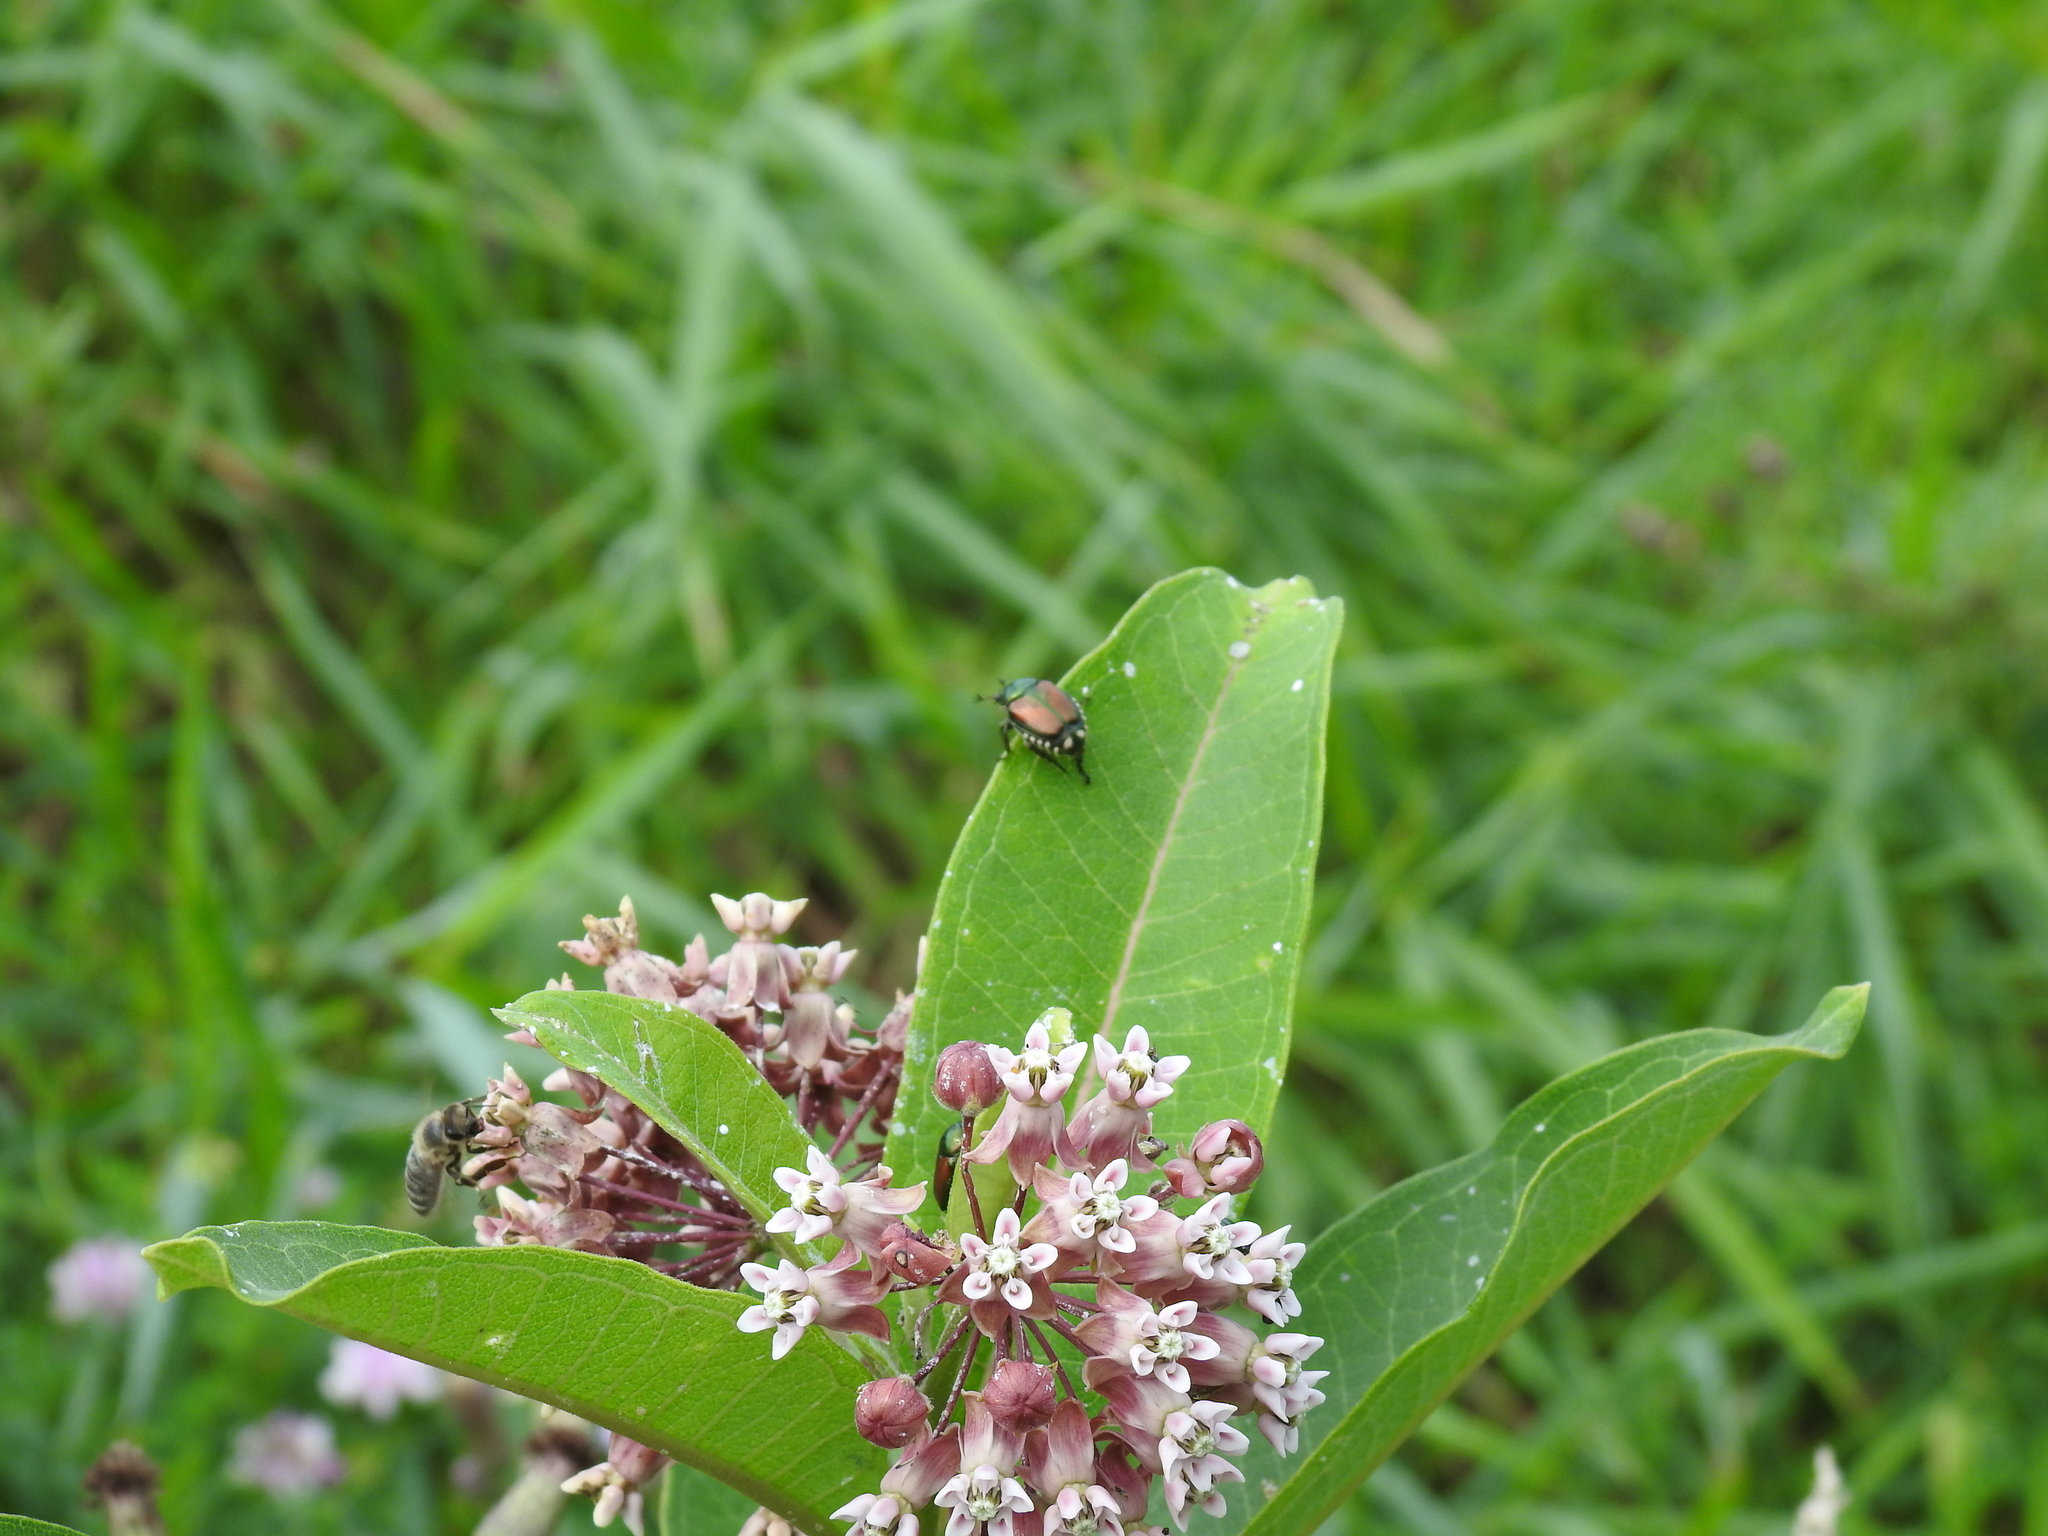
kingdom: Animalia
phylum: Arthropoda
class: Insecta
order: Coleoptera
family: Scarabaeidae
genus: Popillia
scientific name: Popillia japonica
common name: Japanese beetle
